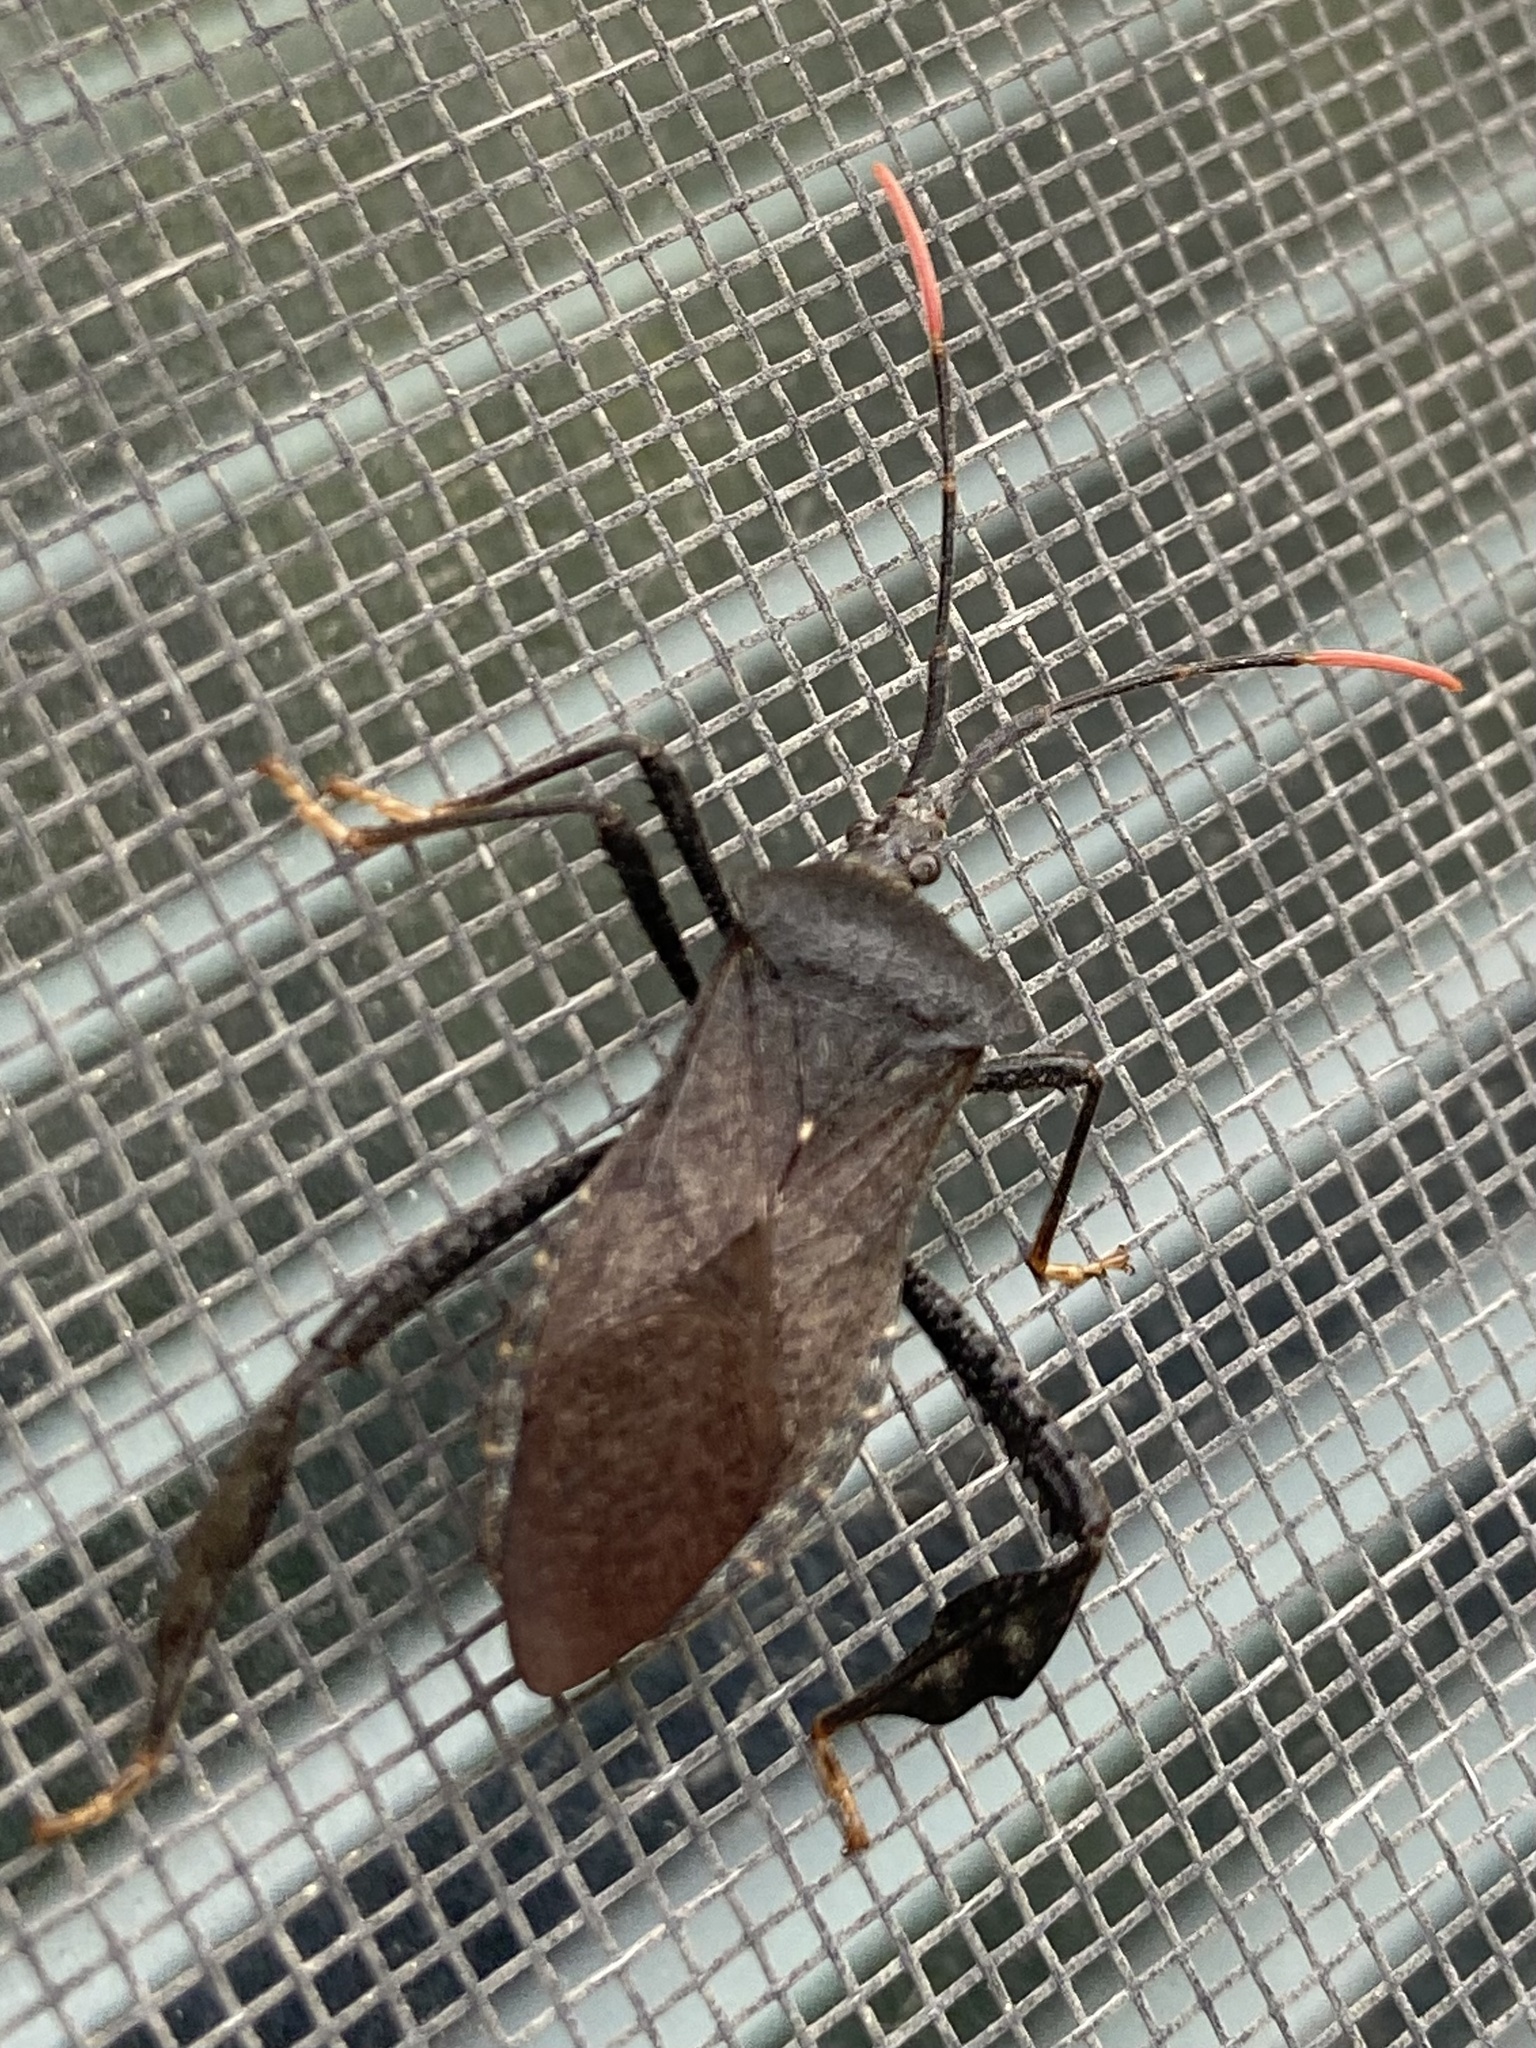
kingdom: Animalia
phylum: Arthropoda
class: Insecta
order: Hemiptera
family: Coreidae
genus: Acanthocephala
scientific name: Acanthocephala terminalis
